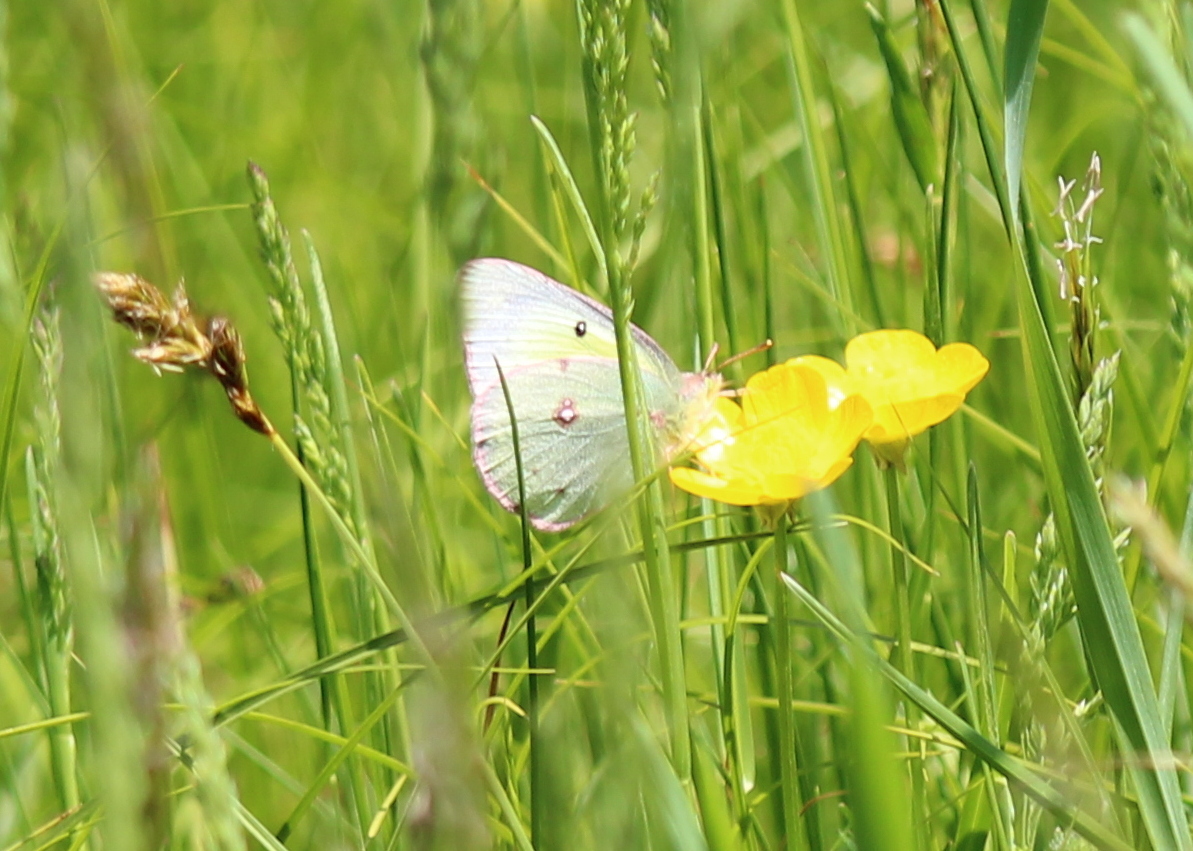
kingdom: Animalia
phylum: Arthropoda
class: Insecta
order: Lepidoptera
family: Pieridae
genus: Colias
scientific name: Colias philodice
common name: Clouded sulphur
